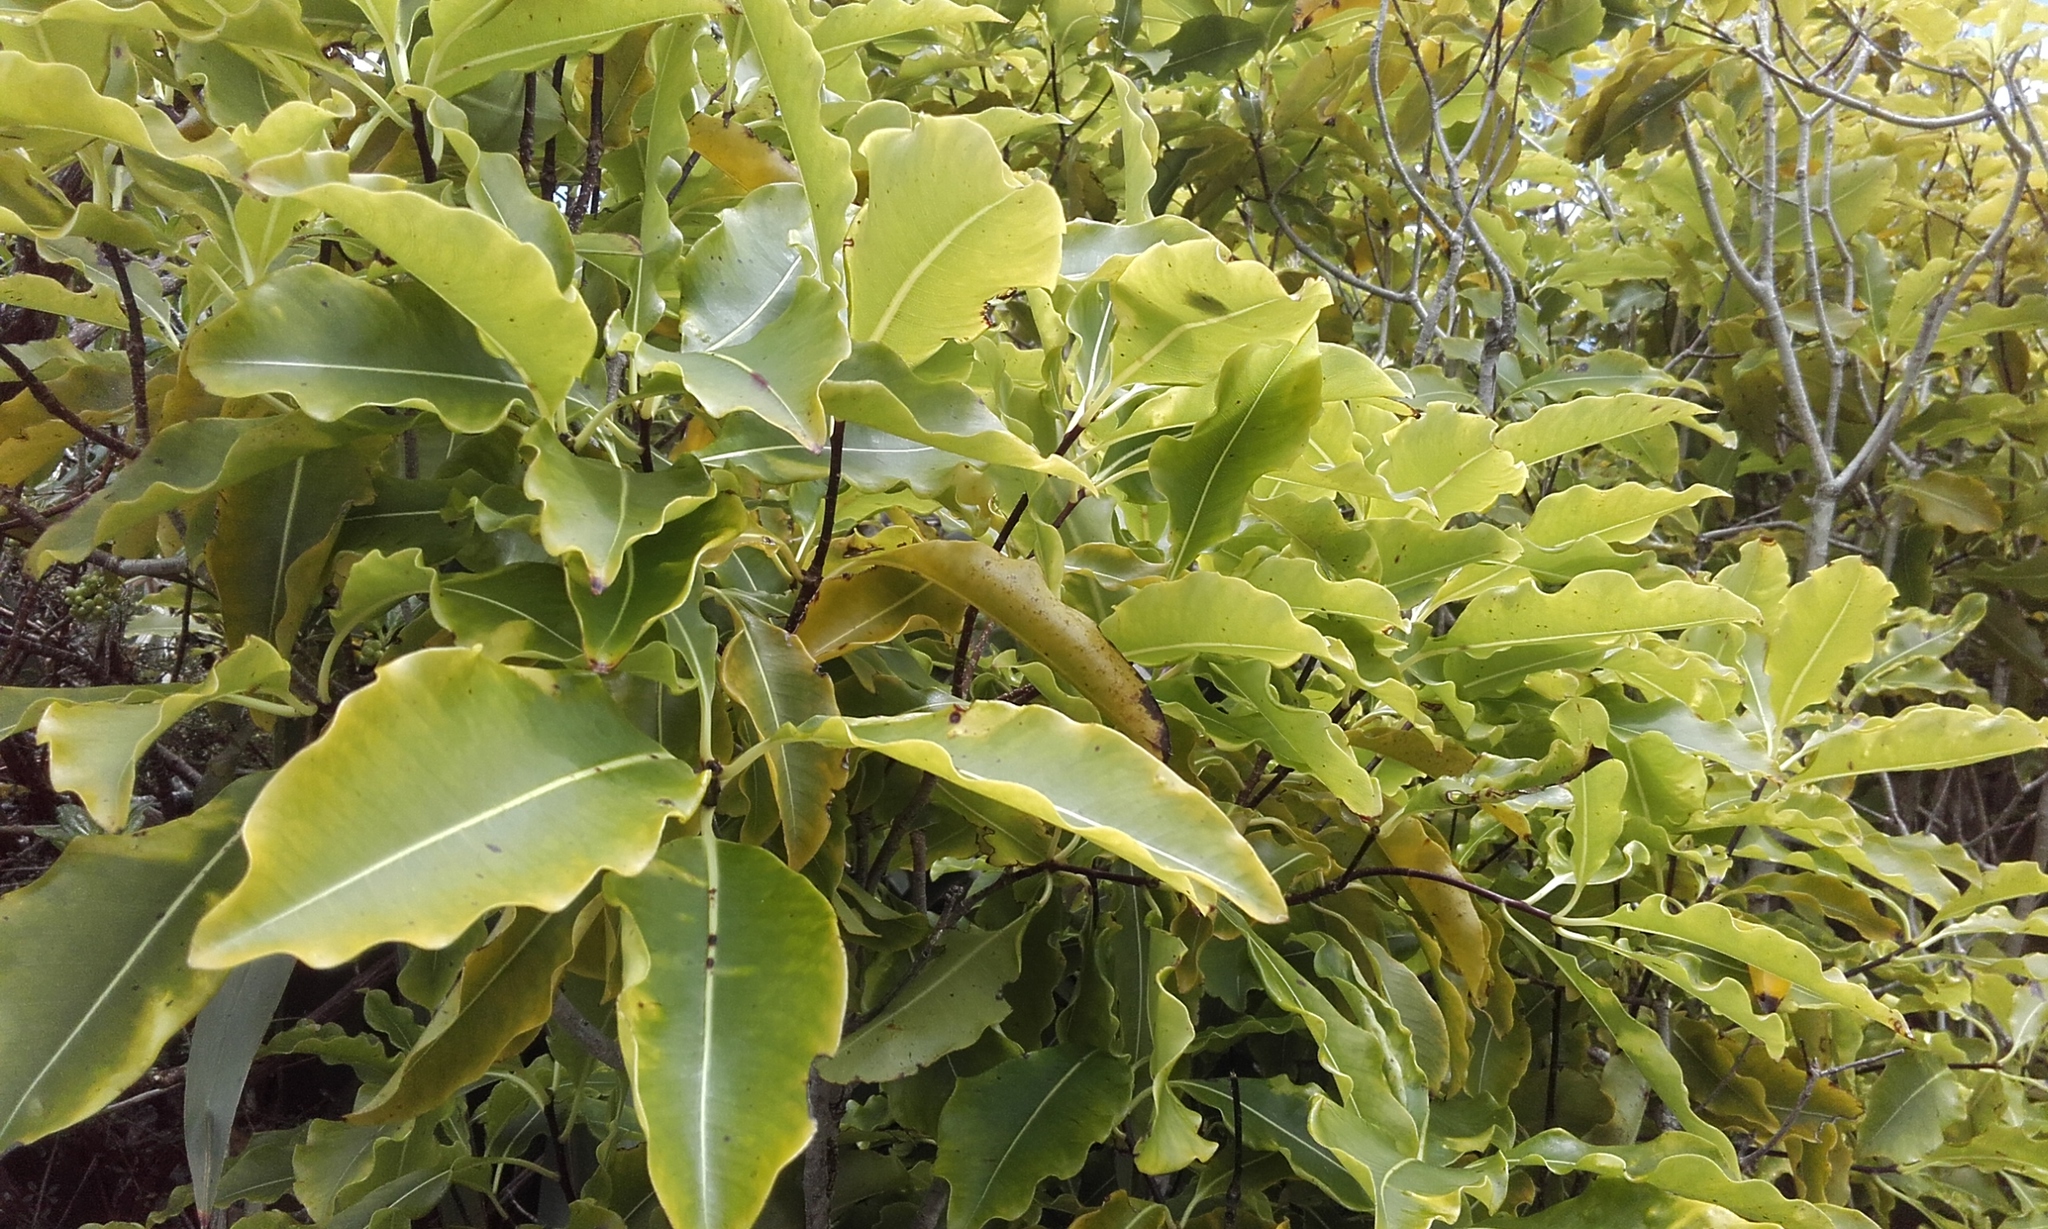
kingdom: Plantae
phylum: Tracheophyta
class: Magnoliopsida
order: Apiales
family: Pittosporaceae
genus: Pittosporum
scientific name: Pittosporum eugenioides
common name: Lemonwood
